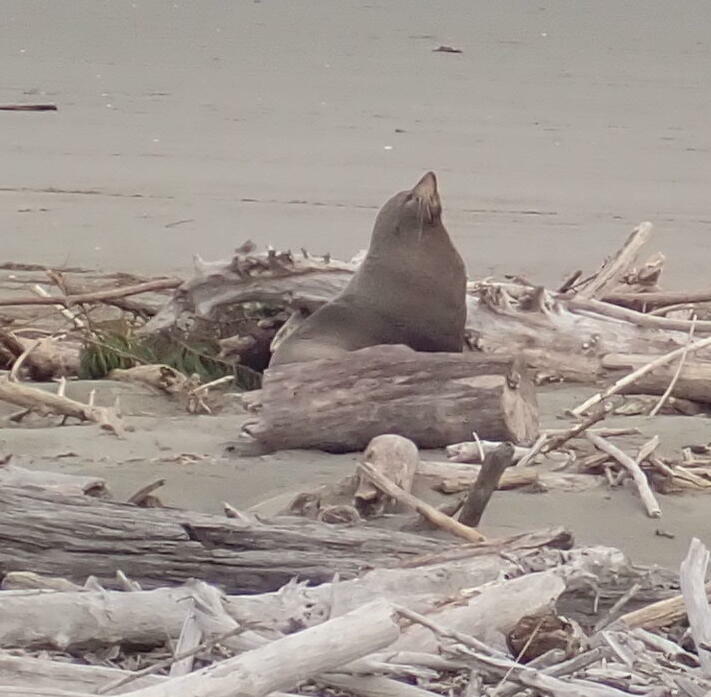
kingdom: Animalia
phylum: Chordata
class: Mammalia
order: Carnivora
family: Otariidae
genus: Arctocephalus
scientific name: Arctocephalus forsteri
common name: New zealand fur seal
